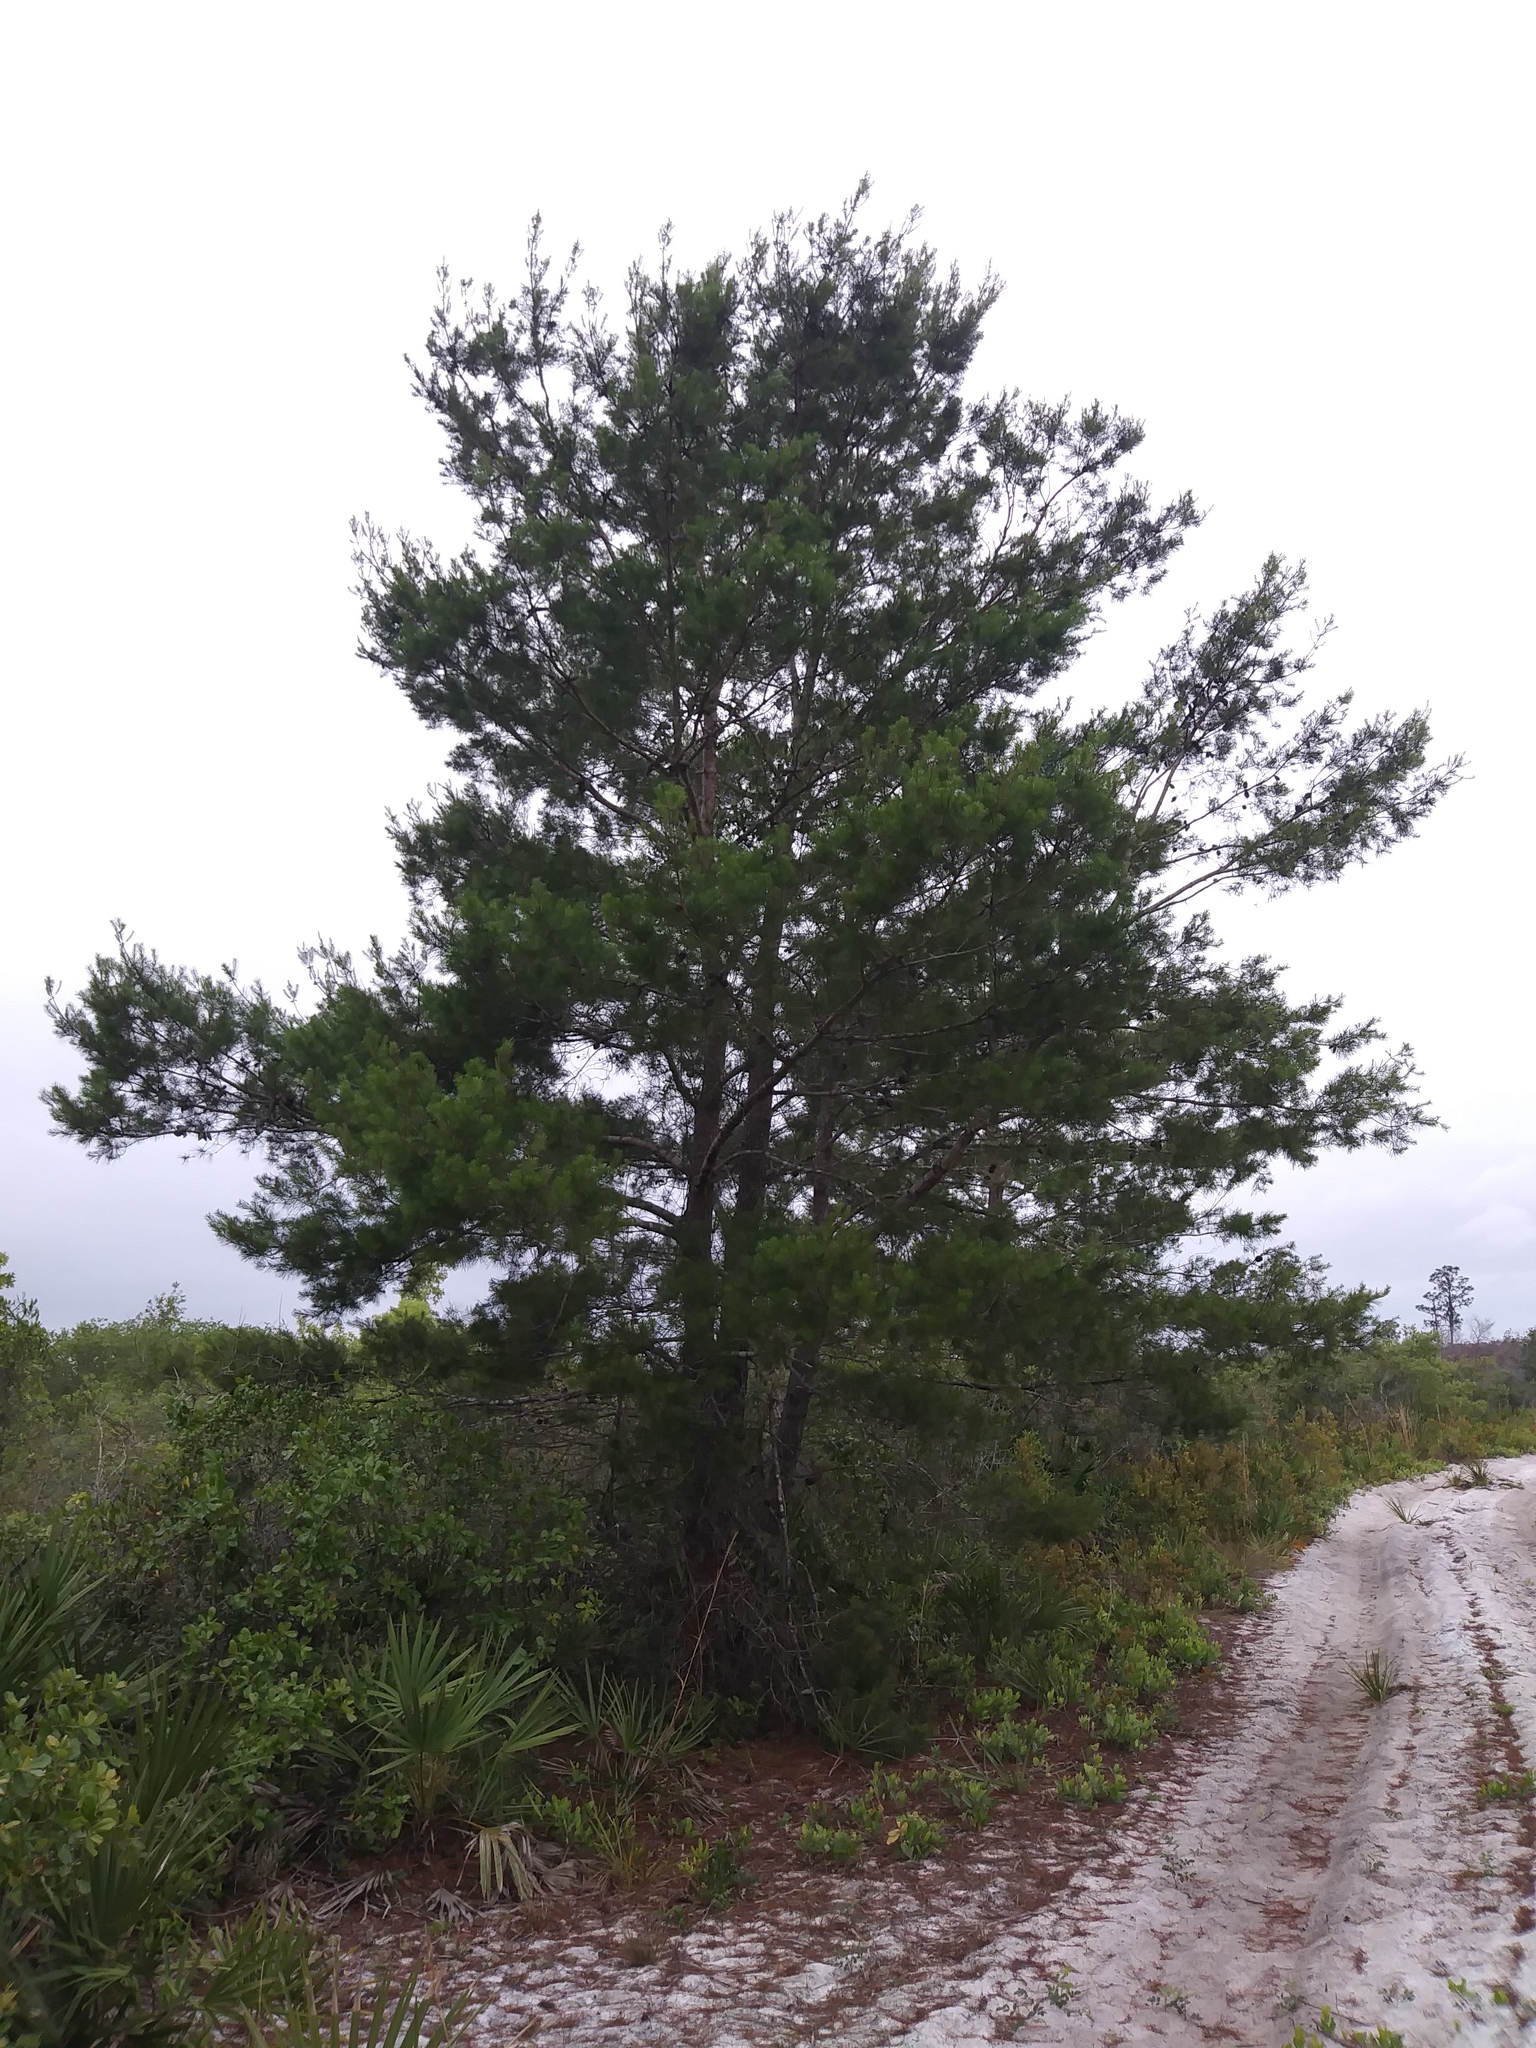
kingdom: Plantae
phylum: Tracheophyta
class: Pinopsida
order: Pinales
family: Pinaceae
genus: Pinus
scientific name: Pinus clausa
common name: Sand pine
